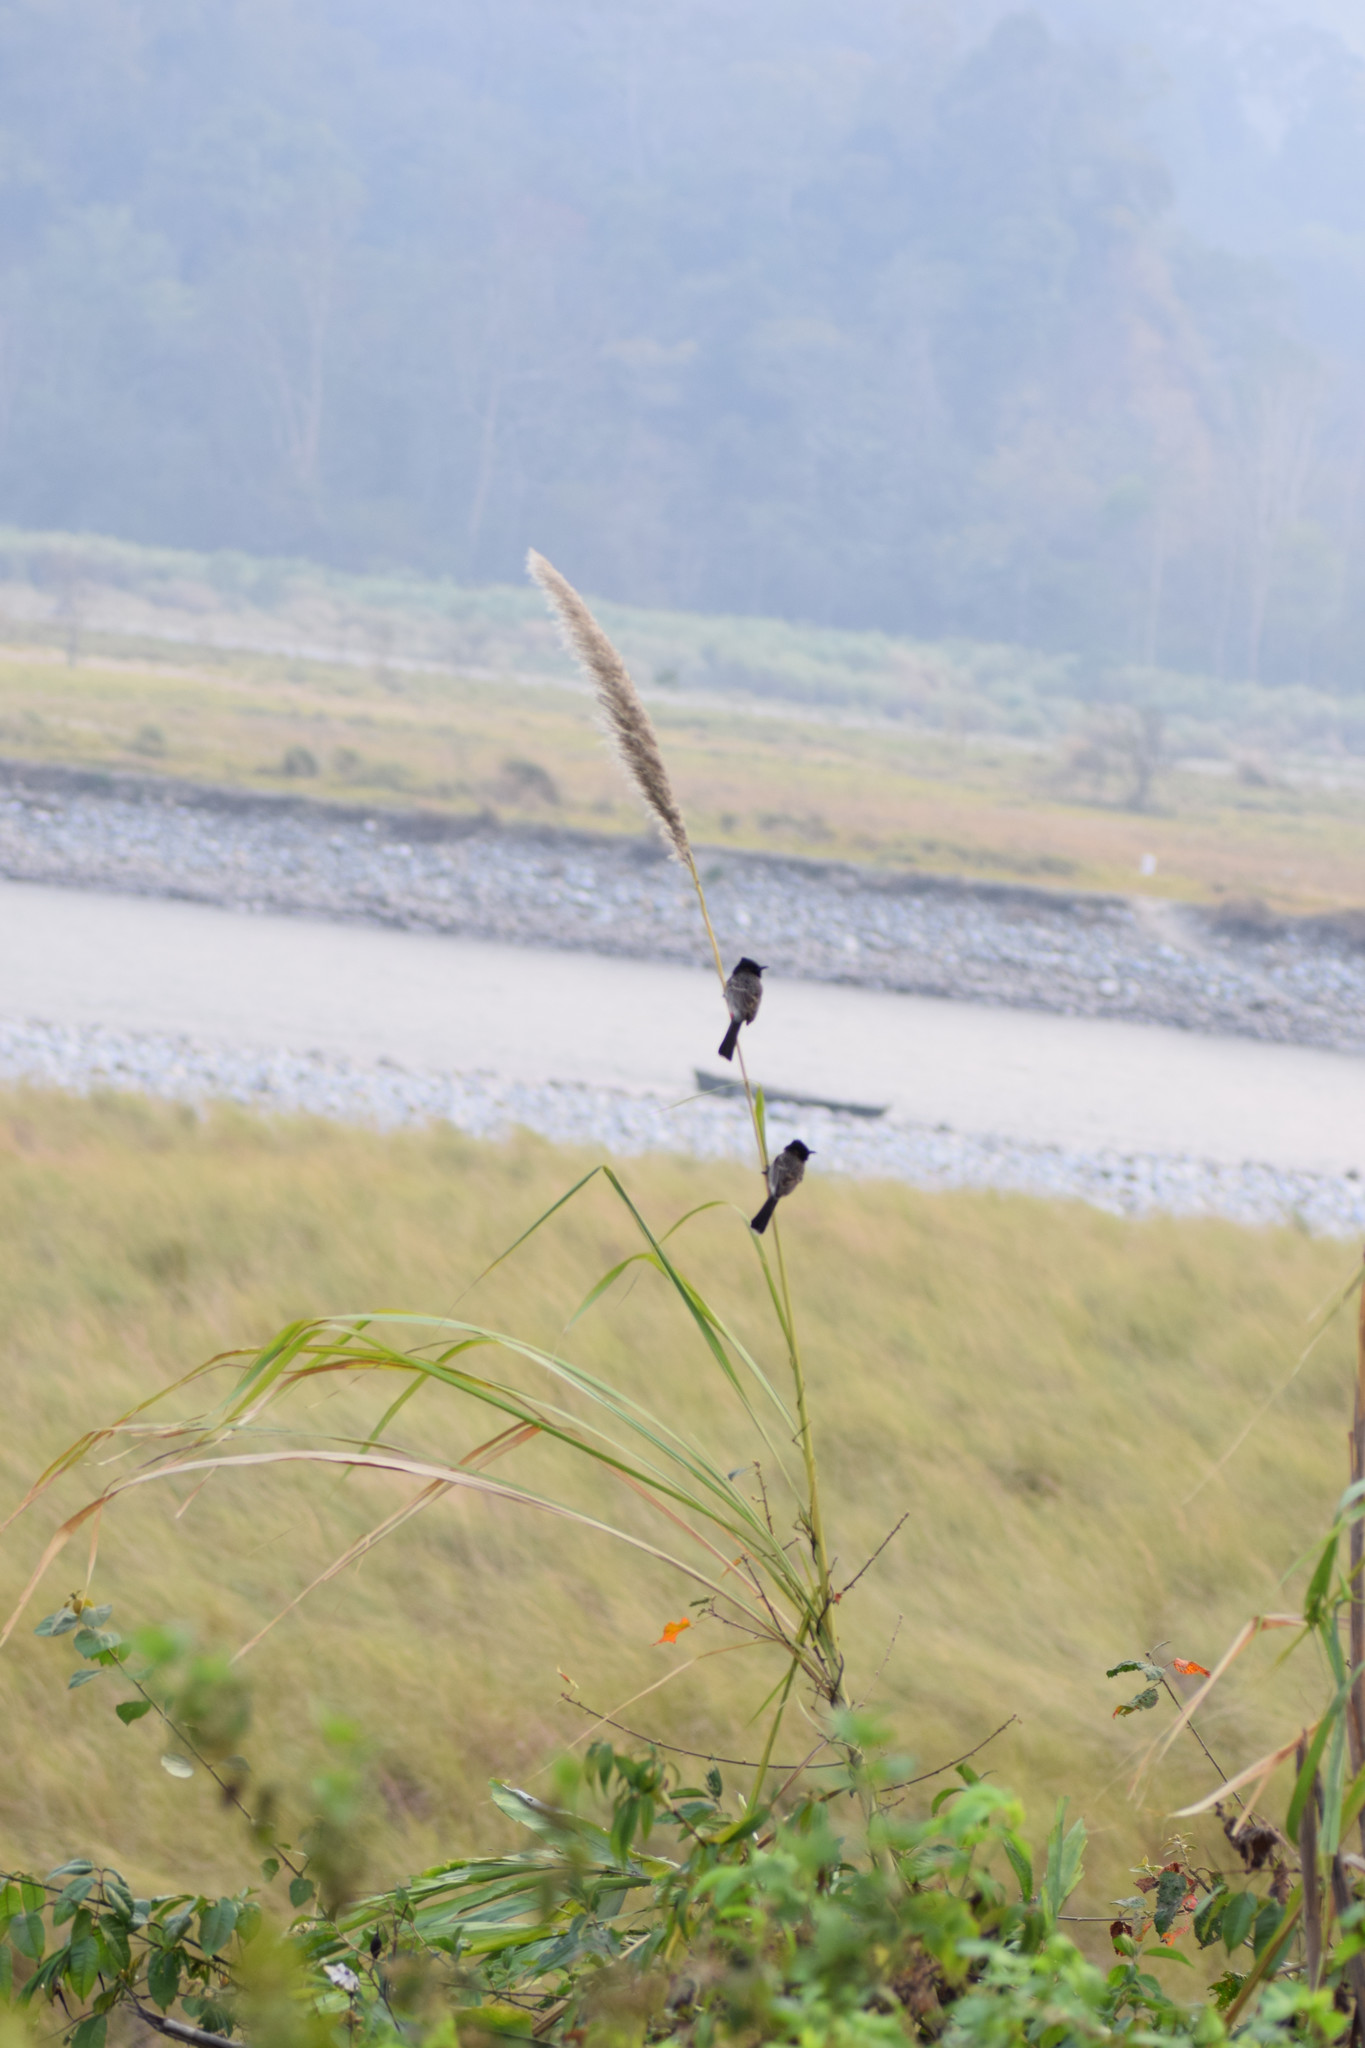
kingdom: Animalia
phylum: Chordata
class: Aves
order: Passeriformes
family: Pycnonotidae
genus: Pycnonotus
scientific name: Pycnonotus cafer
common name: Red-vented bulbul
